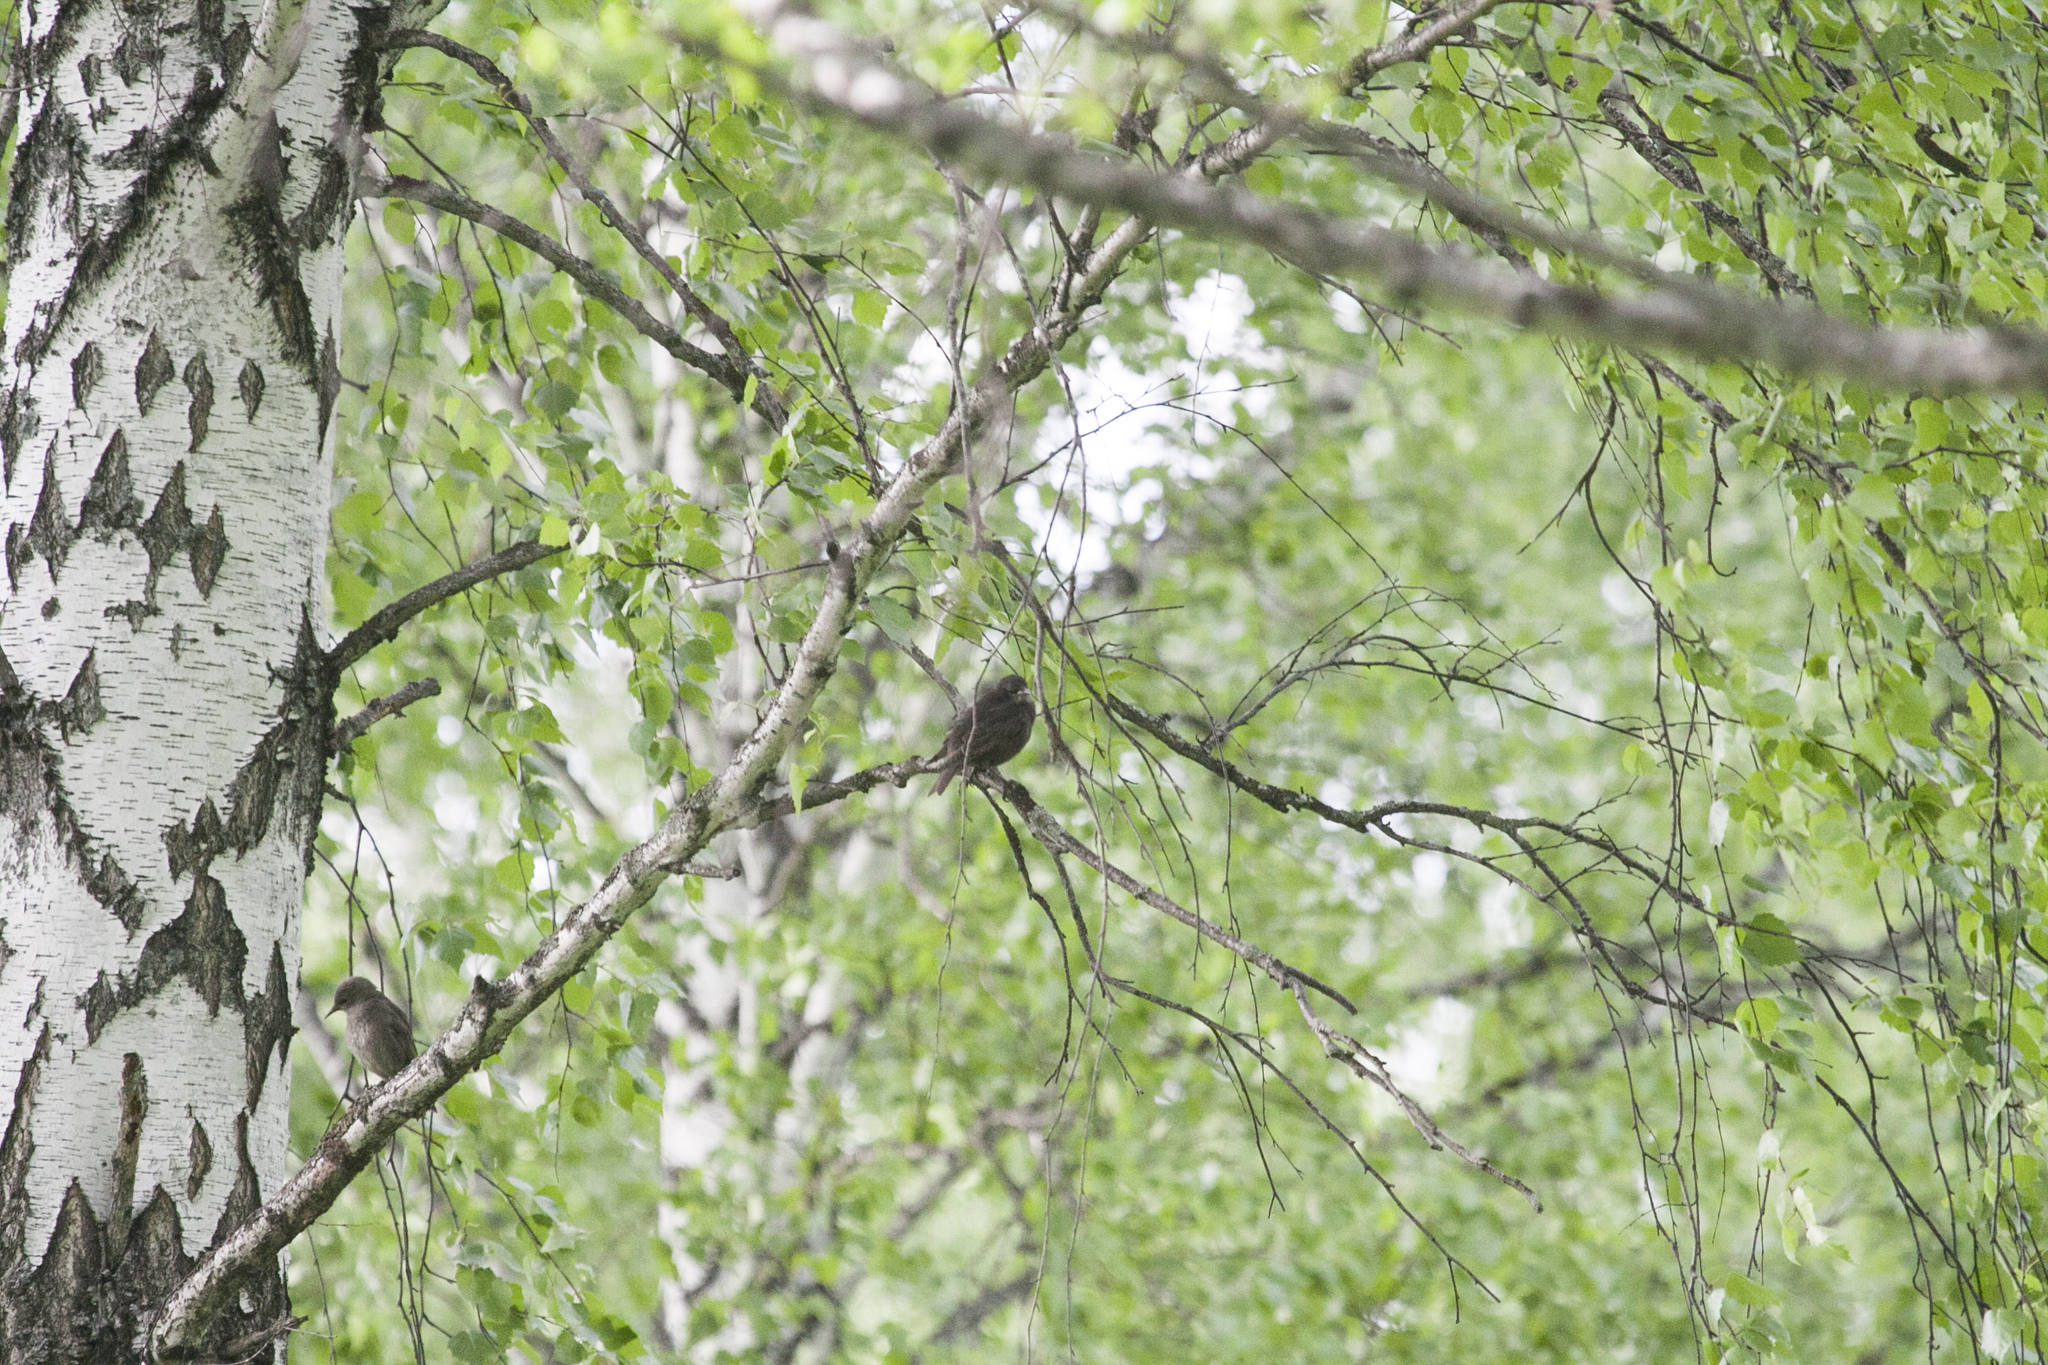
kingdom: Animalia
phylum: Chordata
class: Aves
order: Passeriformes
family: Sturnidae
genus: Sturnus
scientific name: Sturnus vulgaris
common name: Common starling
